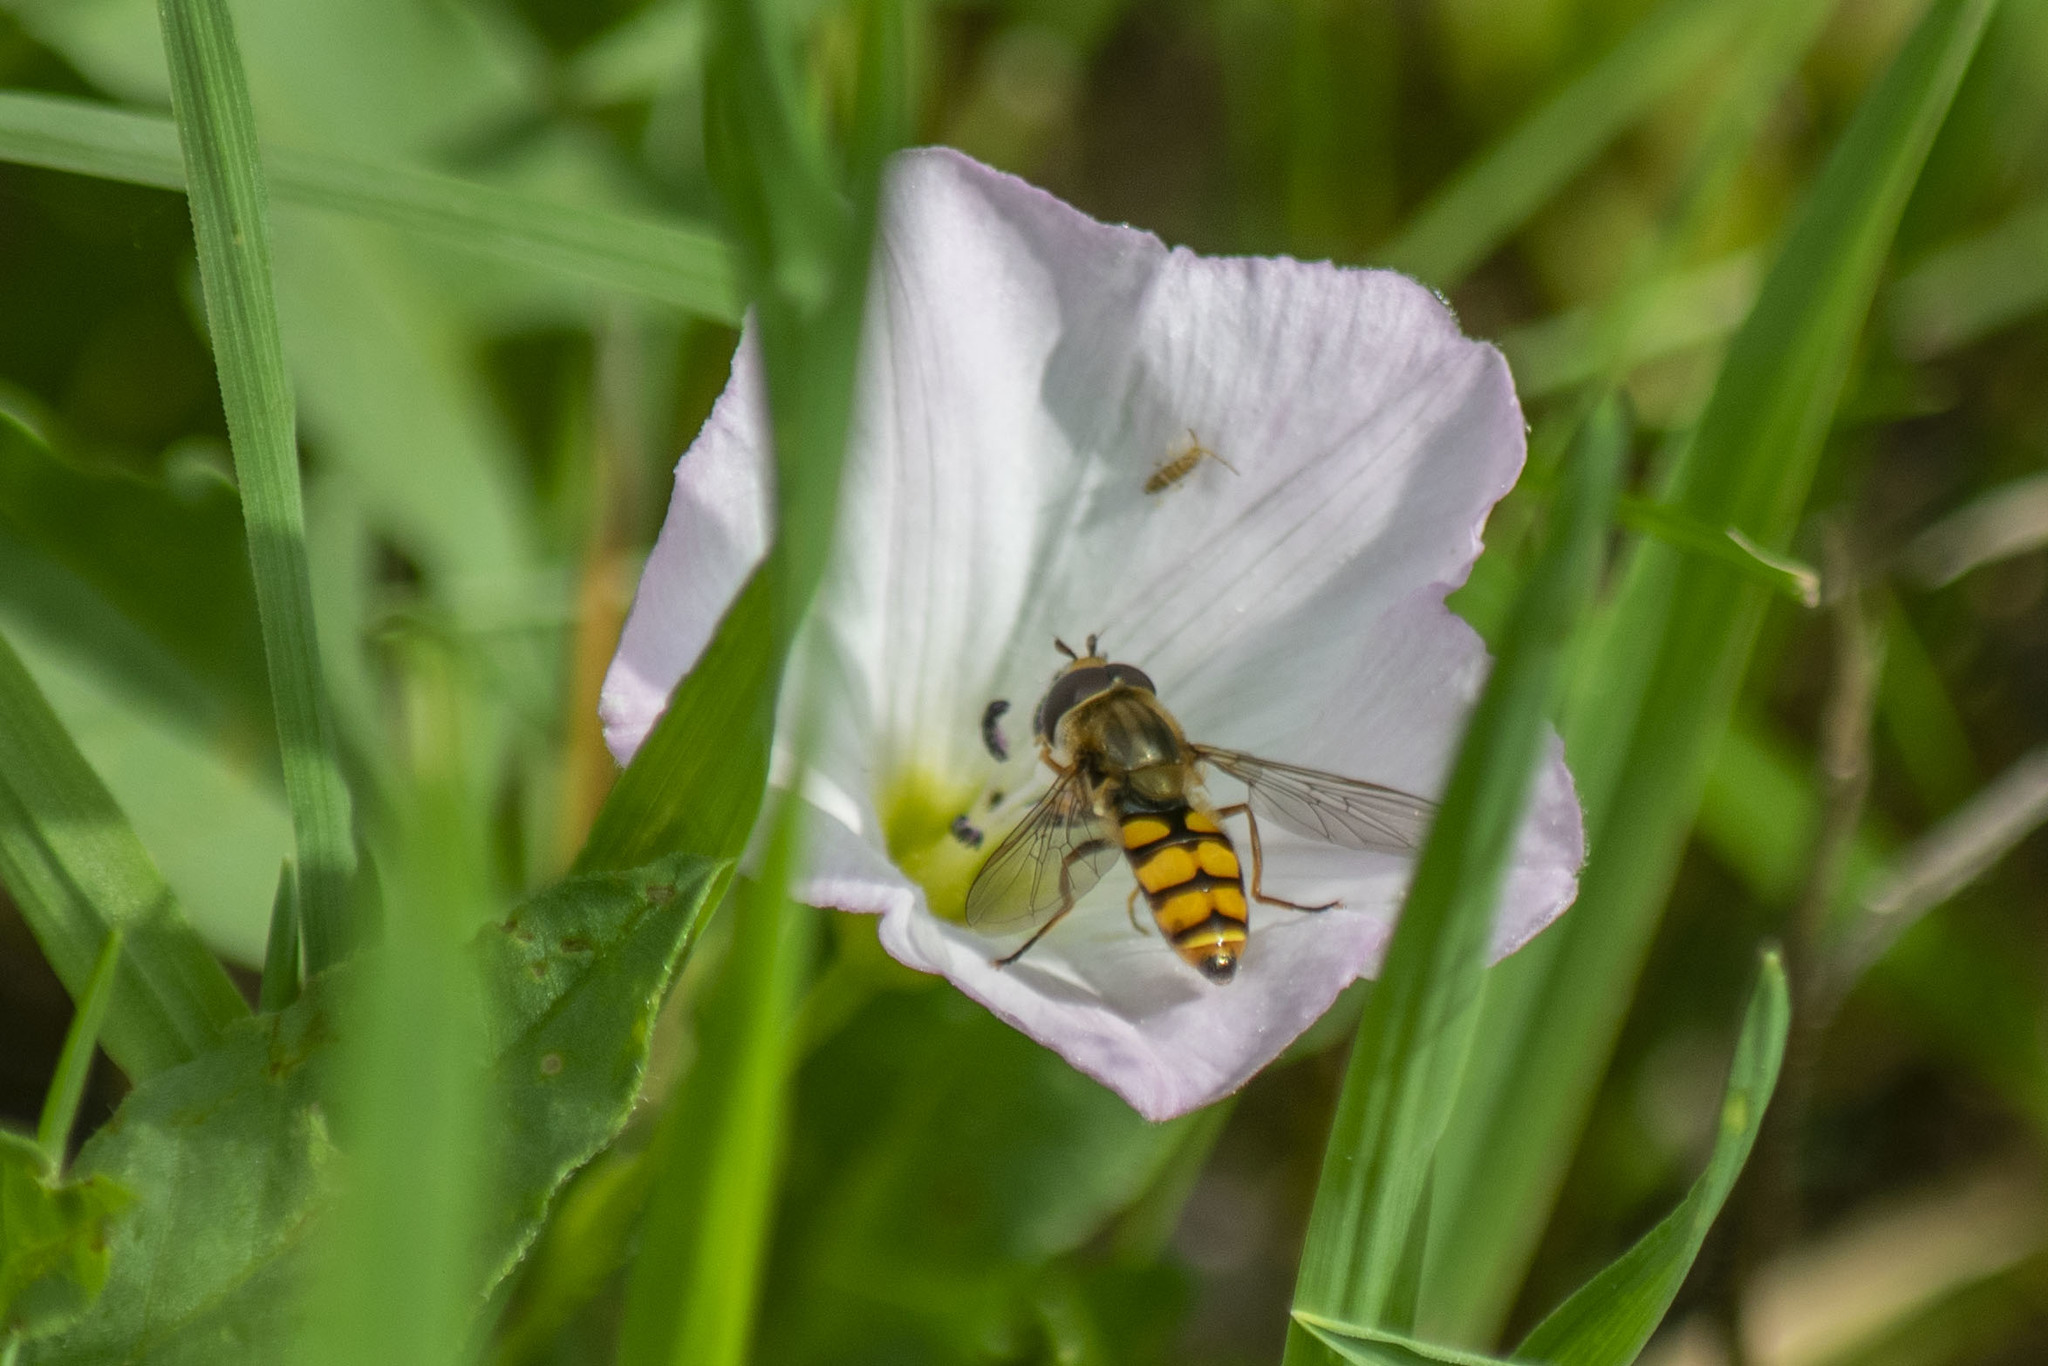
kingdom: Animalia
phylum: Arthropoda
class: Insecta
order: Diptera
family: Syrphidae
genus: Eupeodes
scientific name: Eupeodes corollae
